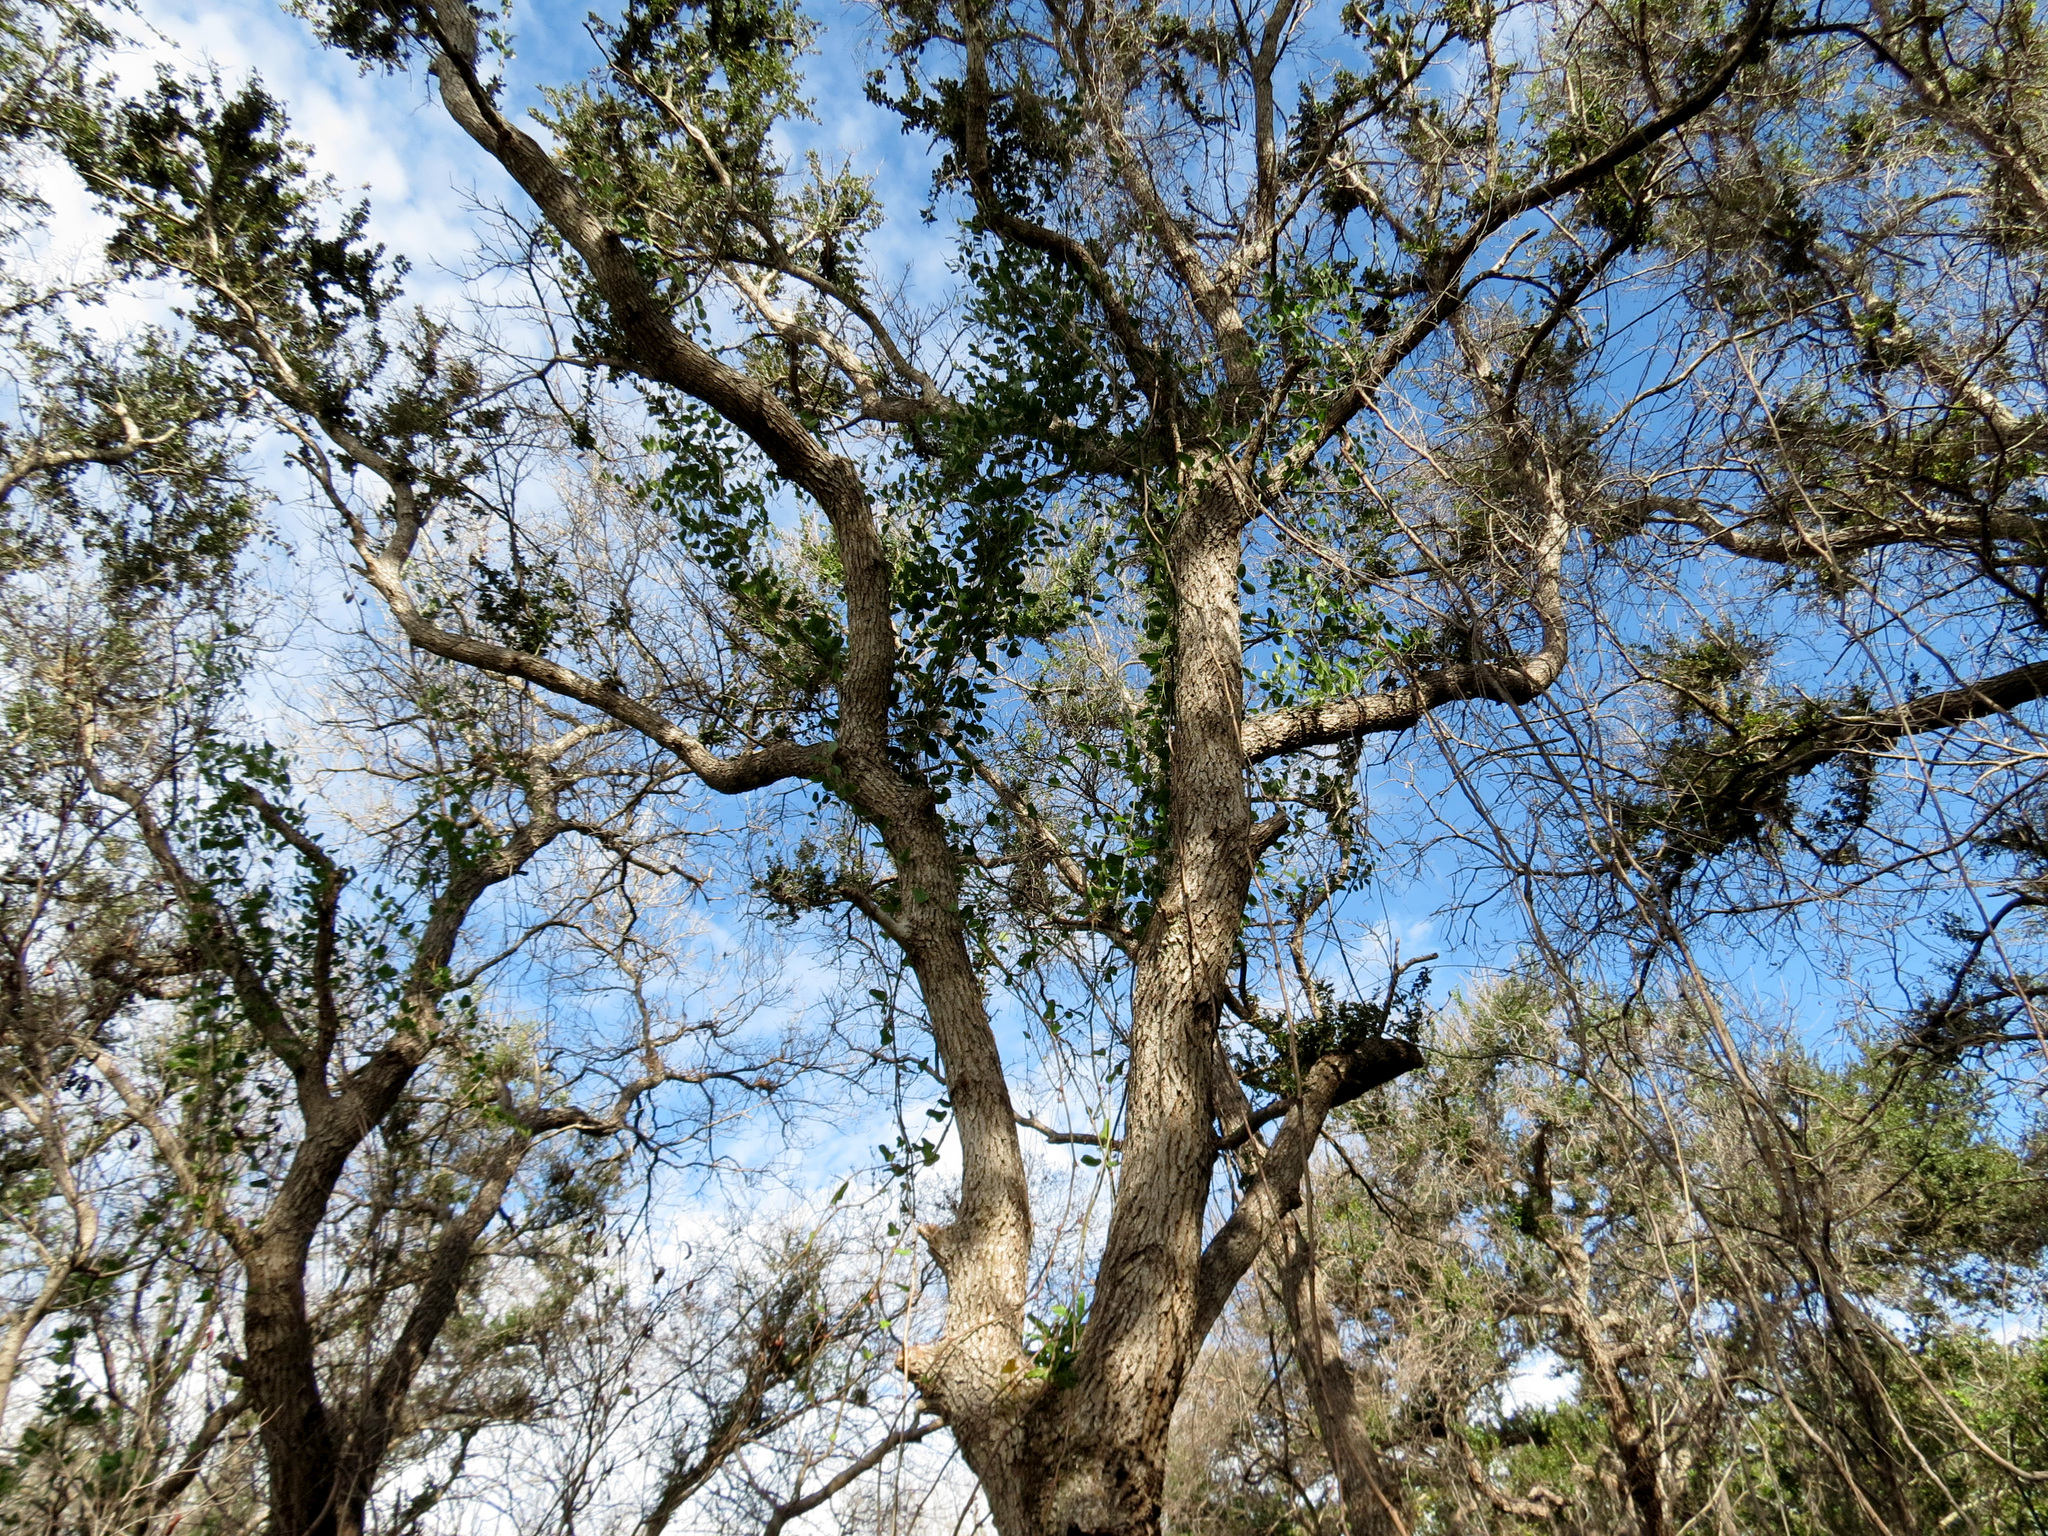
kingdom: Plantae
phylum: Tracheophyta
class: Magnoliopsida
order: Fagales
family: Fagaceae
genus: Quercus
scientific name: Quercus virginiana
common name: Southern live oak
